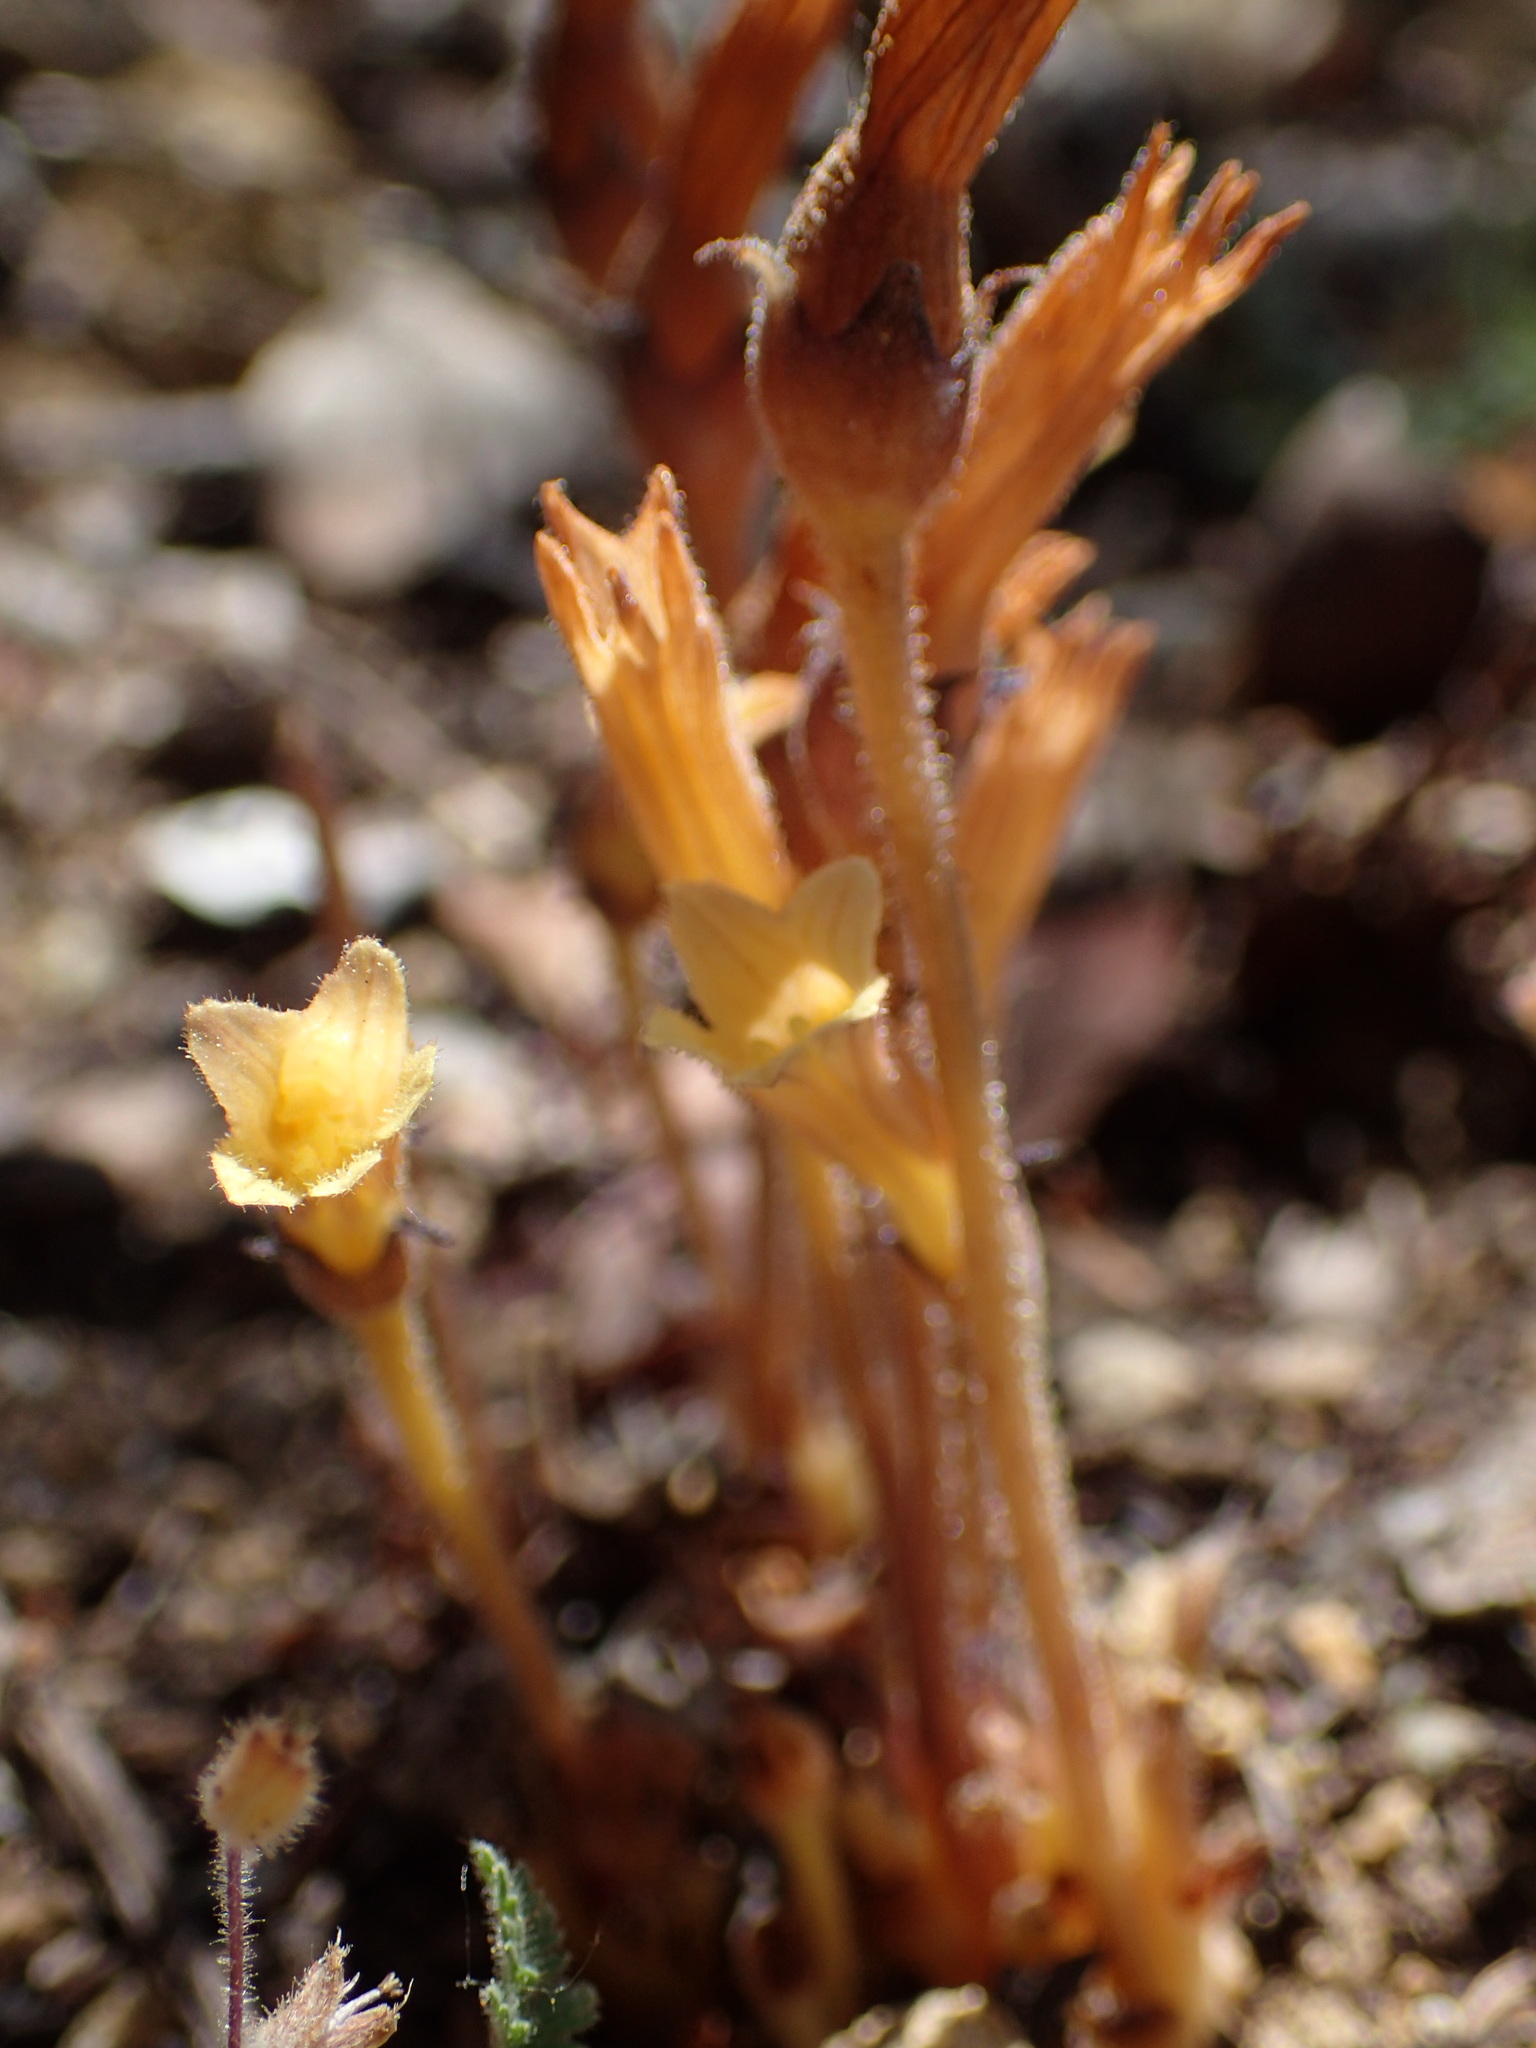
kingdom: Plantae
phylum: Tracheophyta
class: Magnoliopsida
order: Lamiales
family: Orobanchaceae
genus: Aphyllon
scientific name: Aphyllon franciscanum
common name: San francisco broomrape
